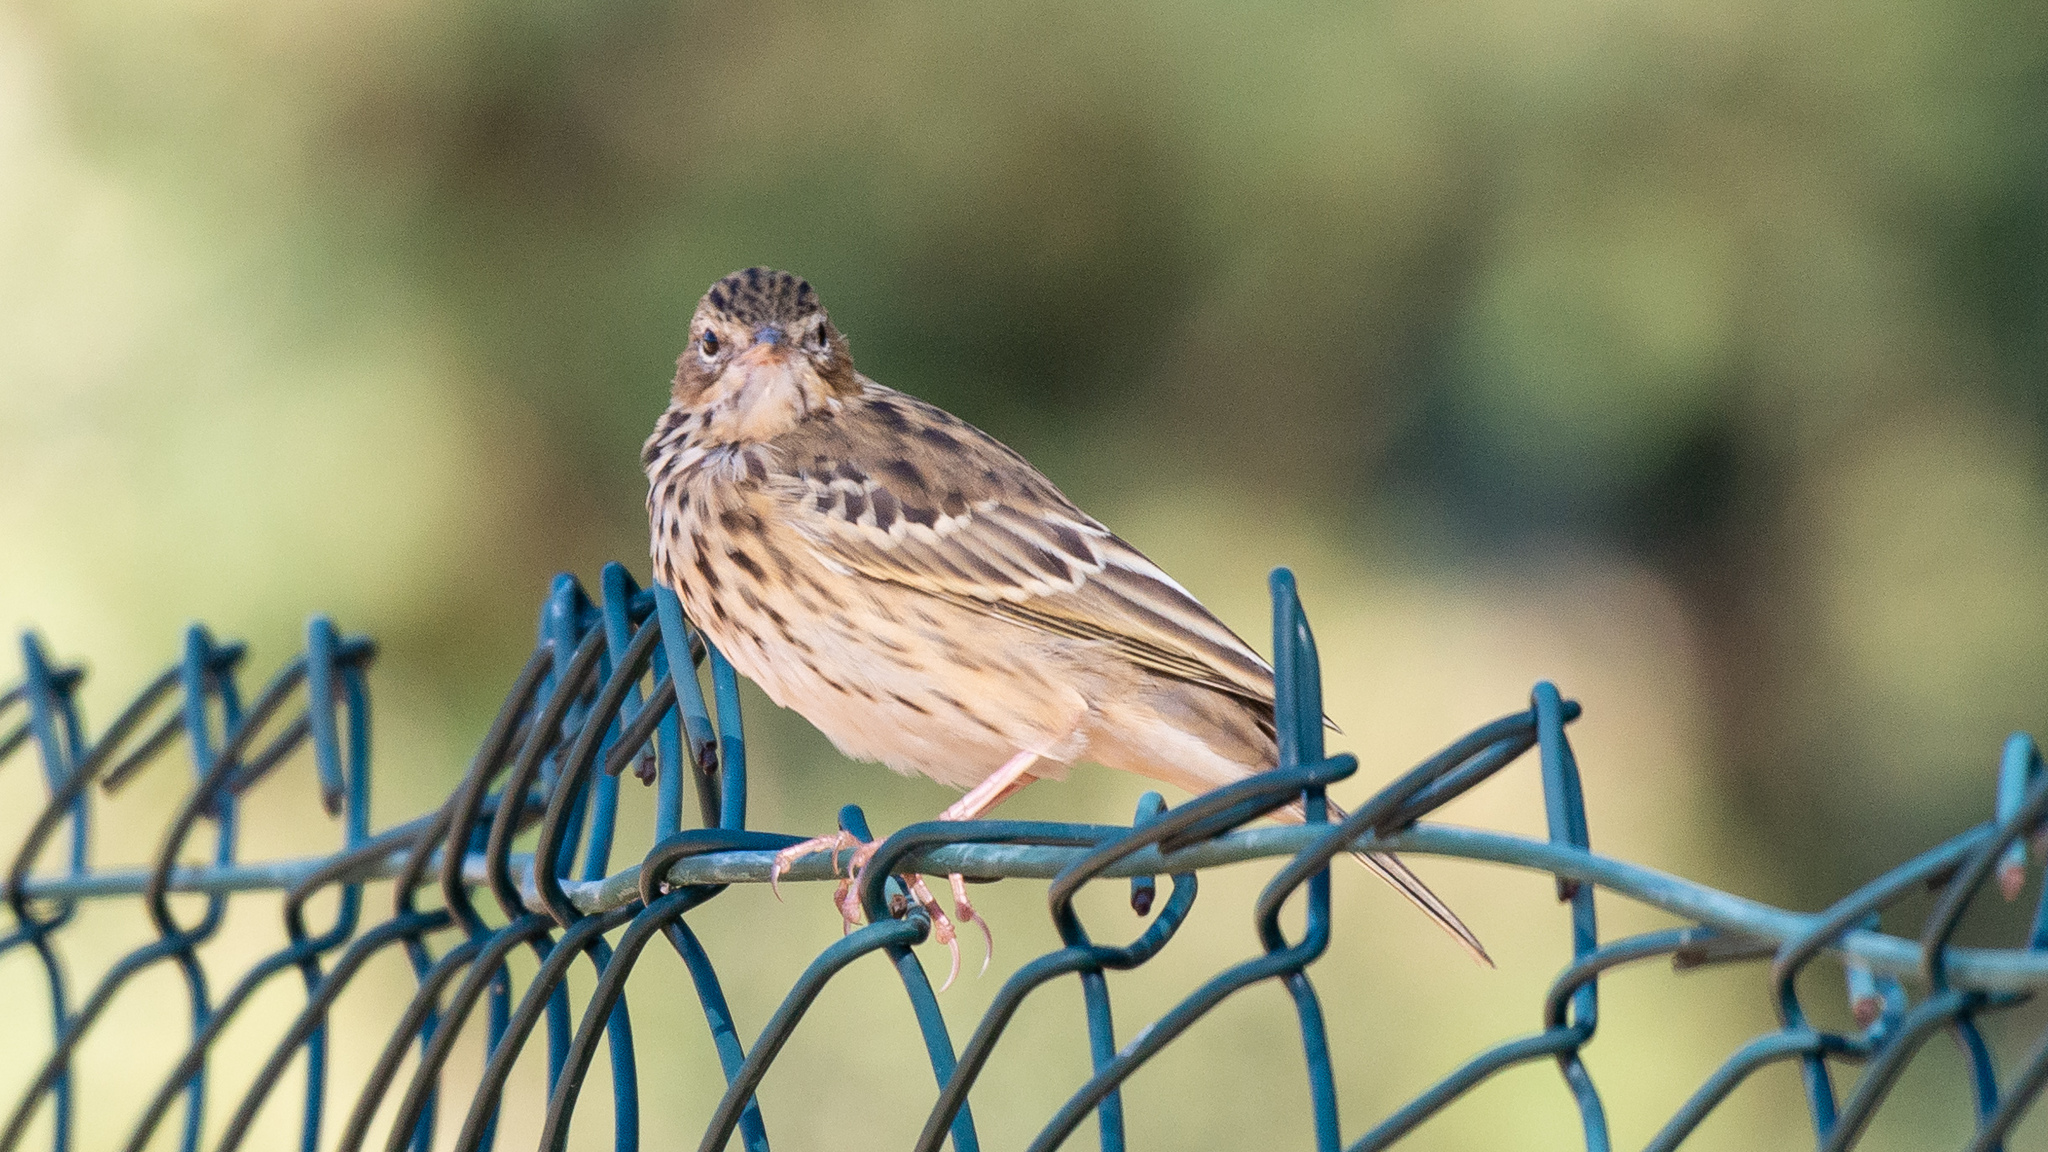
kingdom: Animalia
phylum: Chordata
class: Aves
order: Passeriformes
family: Motacillidae
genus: Anthus
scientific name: Anthus trivialis
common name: Tree pipit
